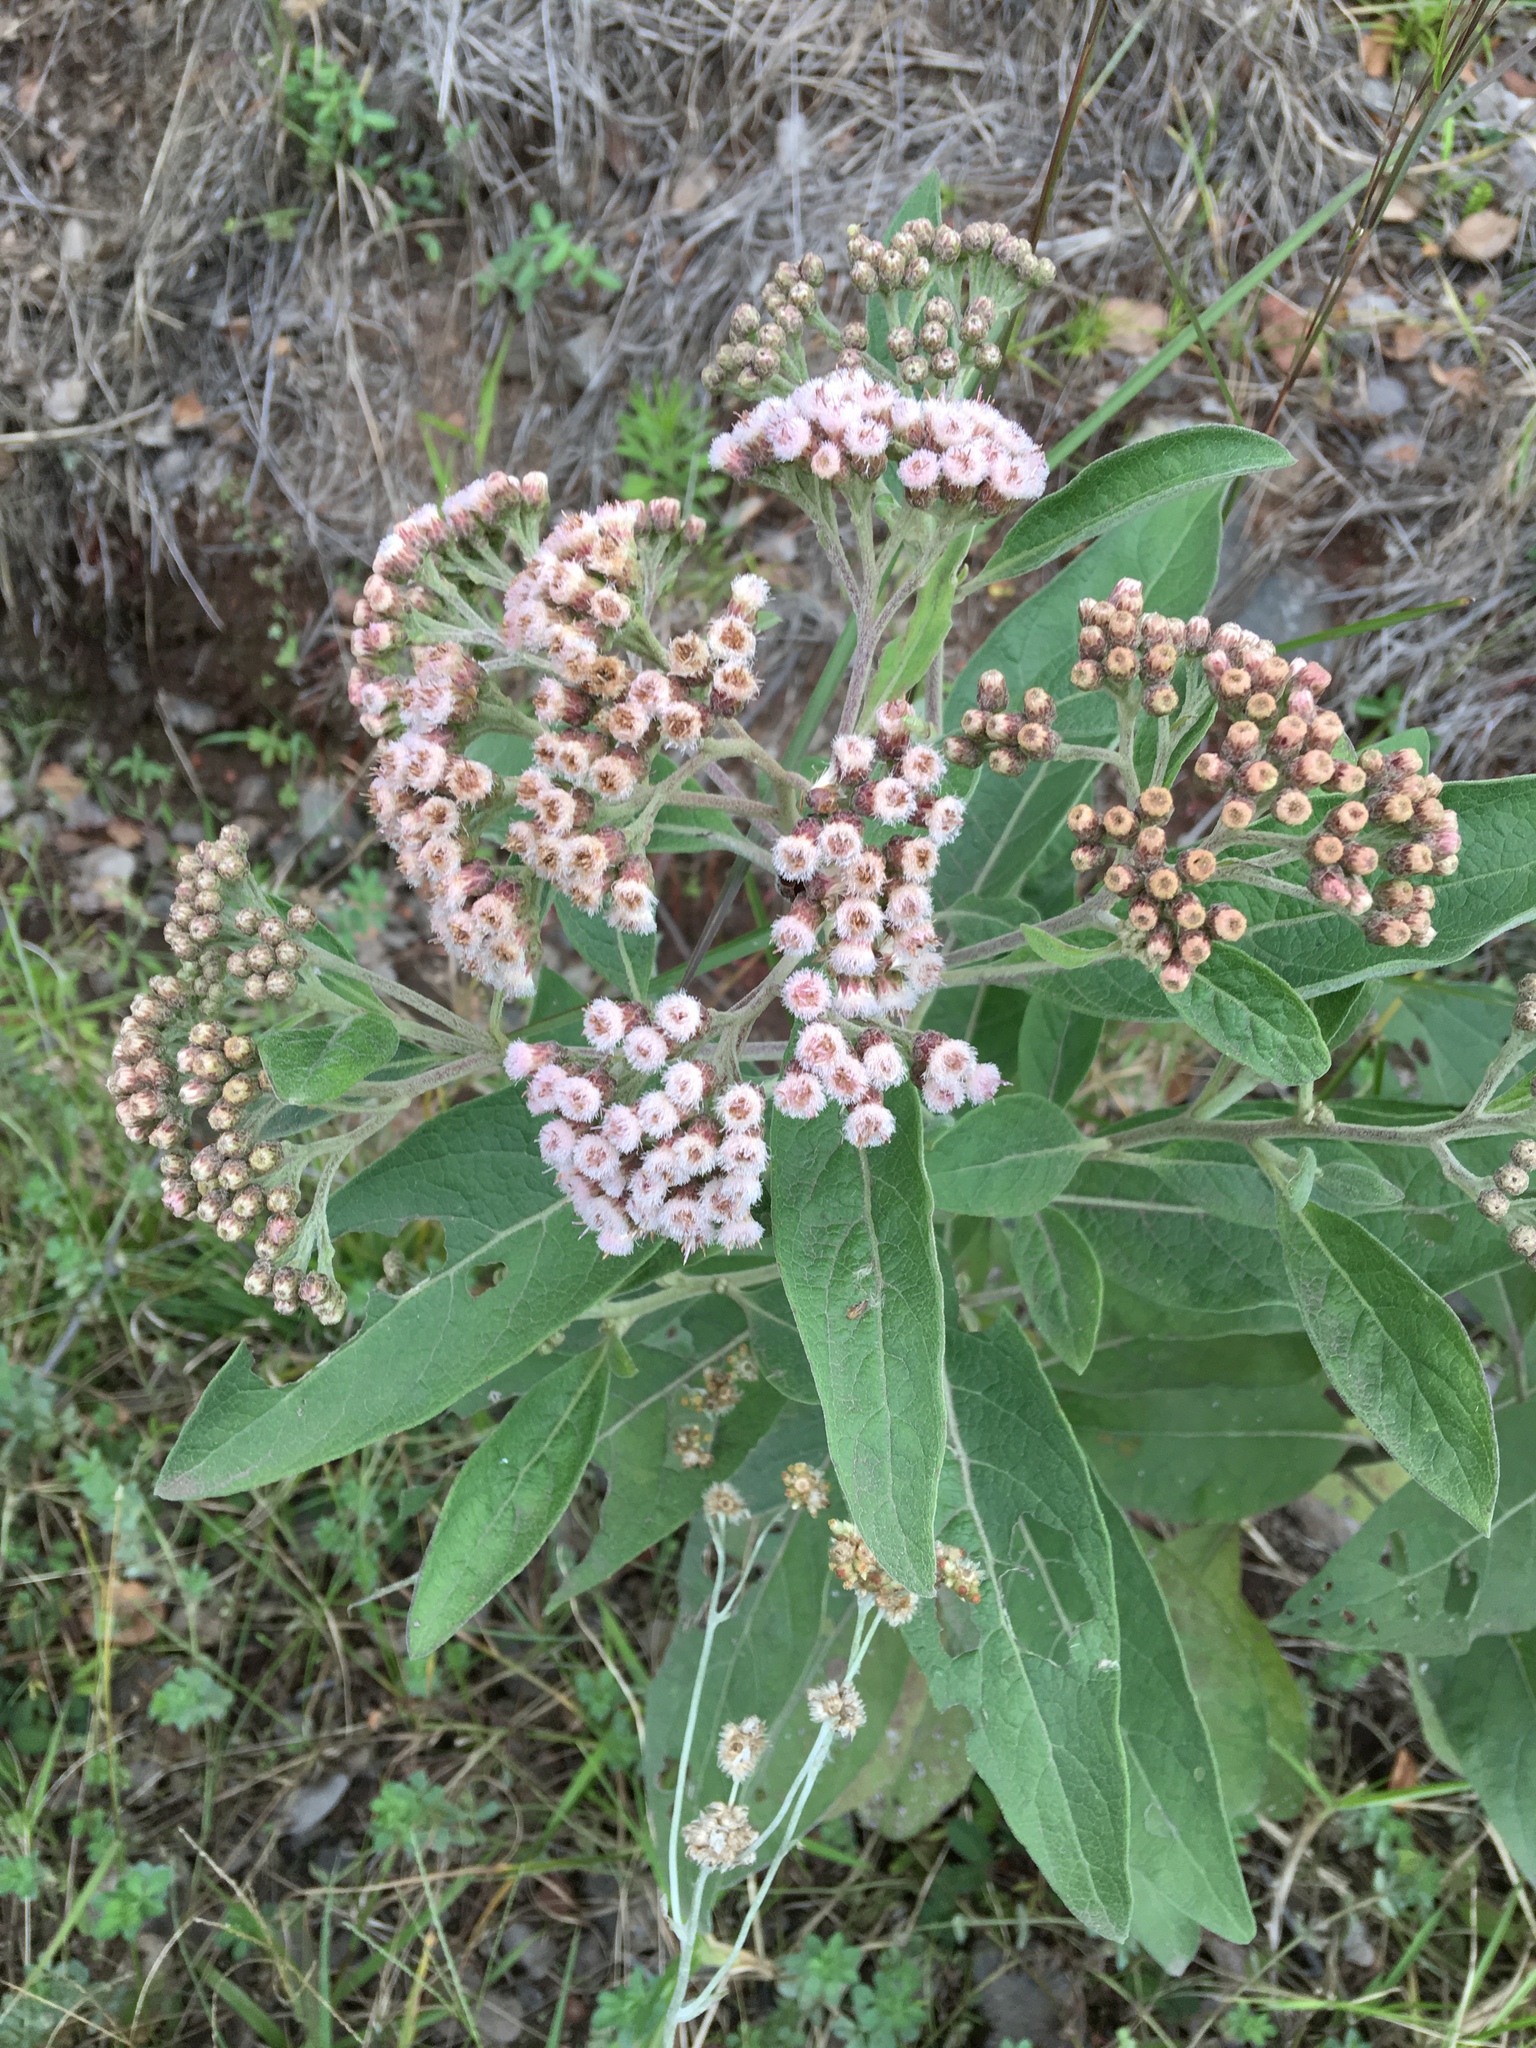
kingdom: Plantae
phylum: Tracheophyta
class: Magnoliopsida
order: Asterales
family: Asteraceae
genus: Pluchea
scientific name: Pluchea carolinensis
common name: Marsh fleabane
